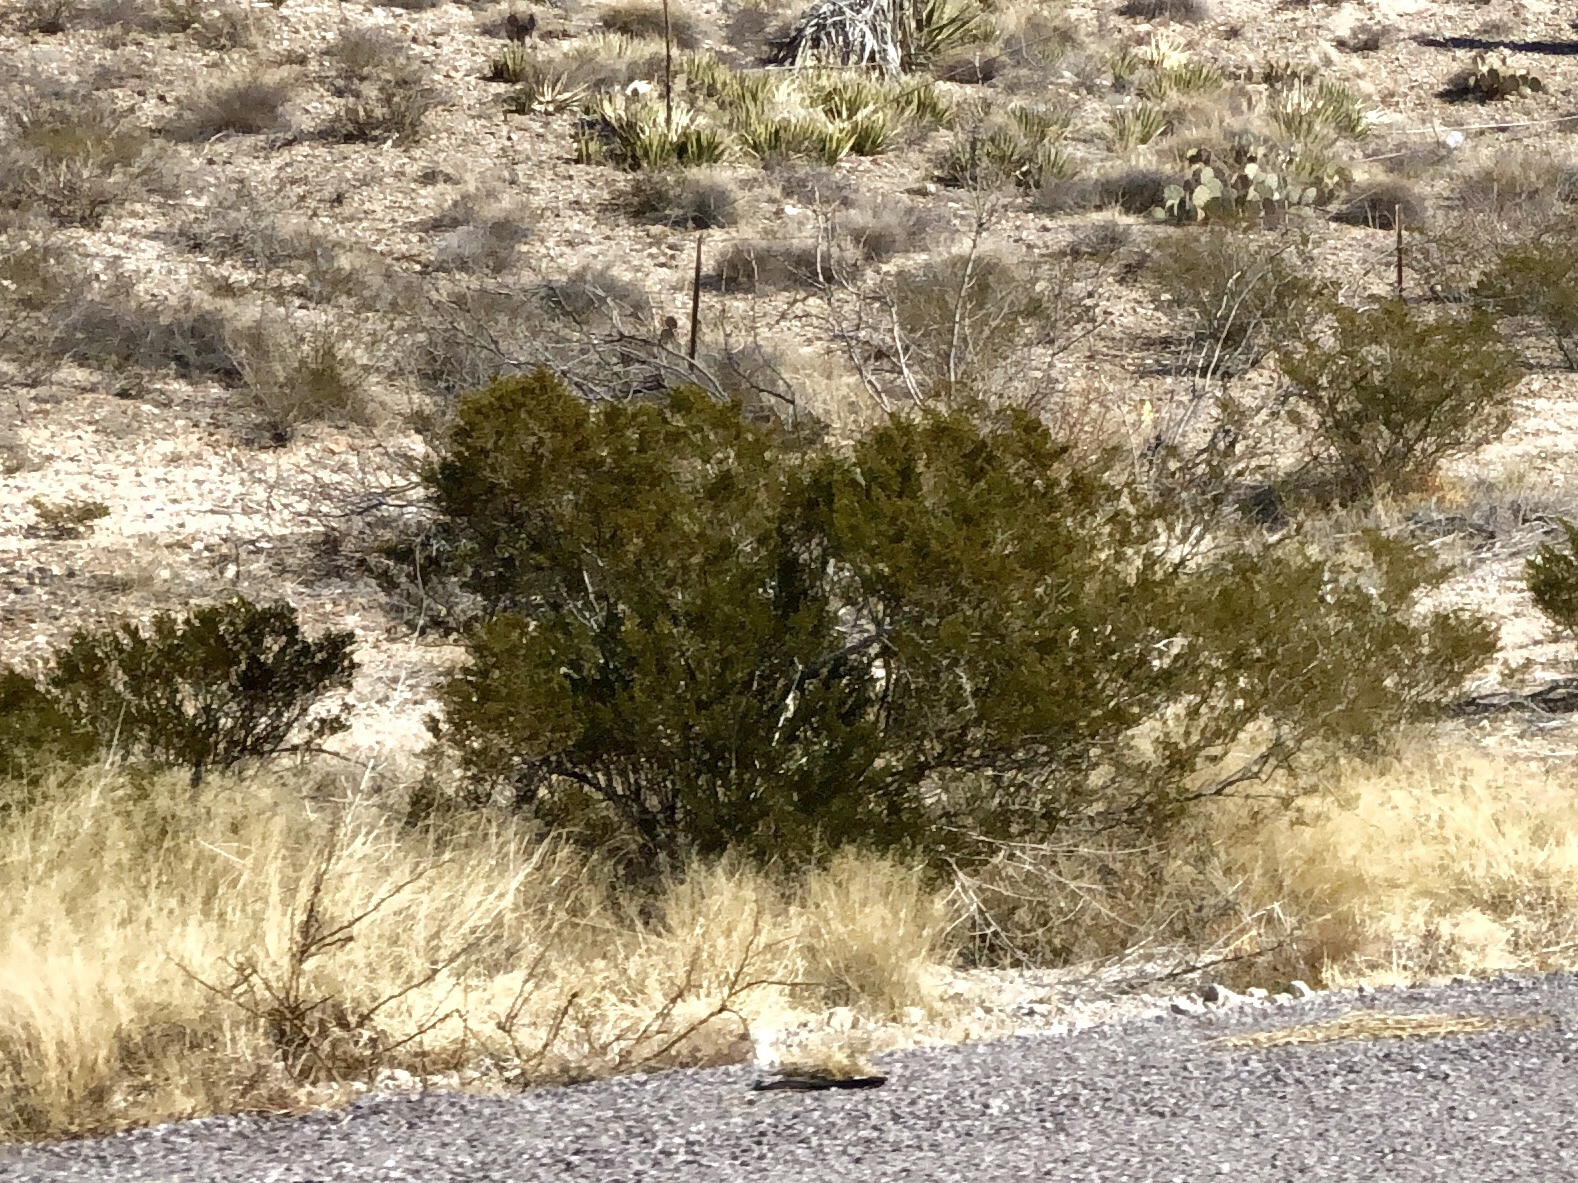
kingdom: Plantae
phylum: Tracheophyta
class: Magnoliopsida
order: Zygophyllales
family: Zygophyllaceae
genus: Larrea
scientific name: Larrea tridentata
